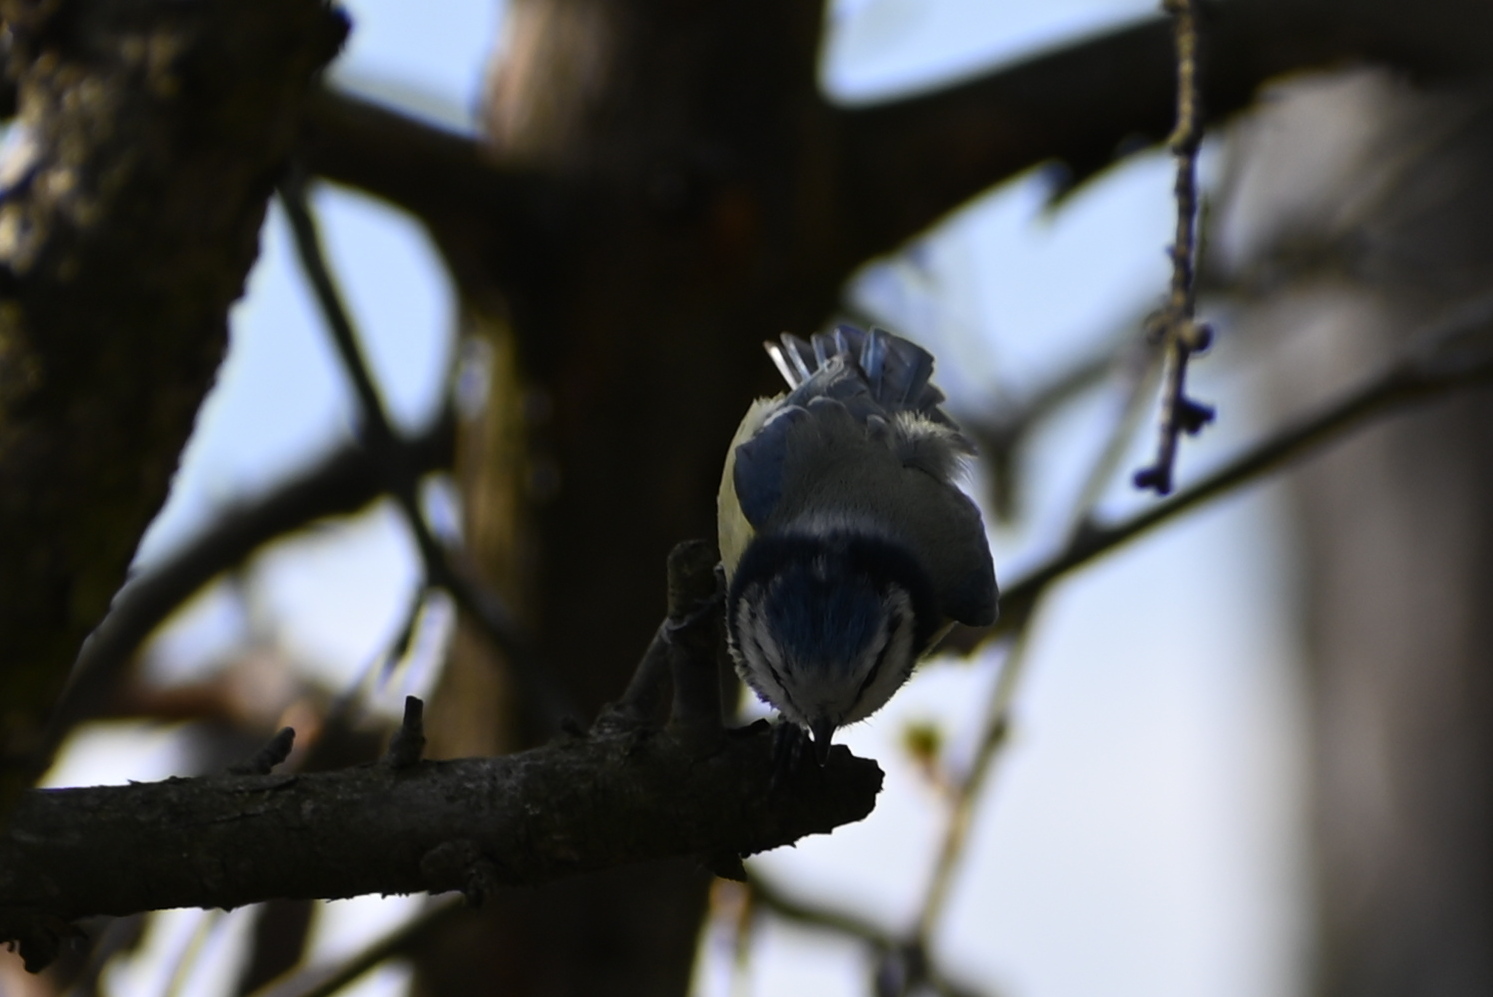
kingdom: Animalia
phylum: Chordata
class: Aves
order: Passeriformes
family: Paridae
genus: Cyanistes
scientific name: Cyanistes caeruleus
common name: Eurasian blue tit
